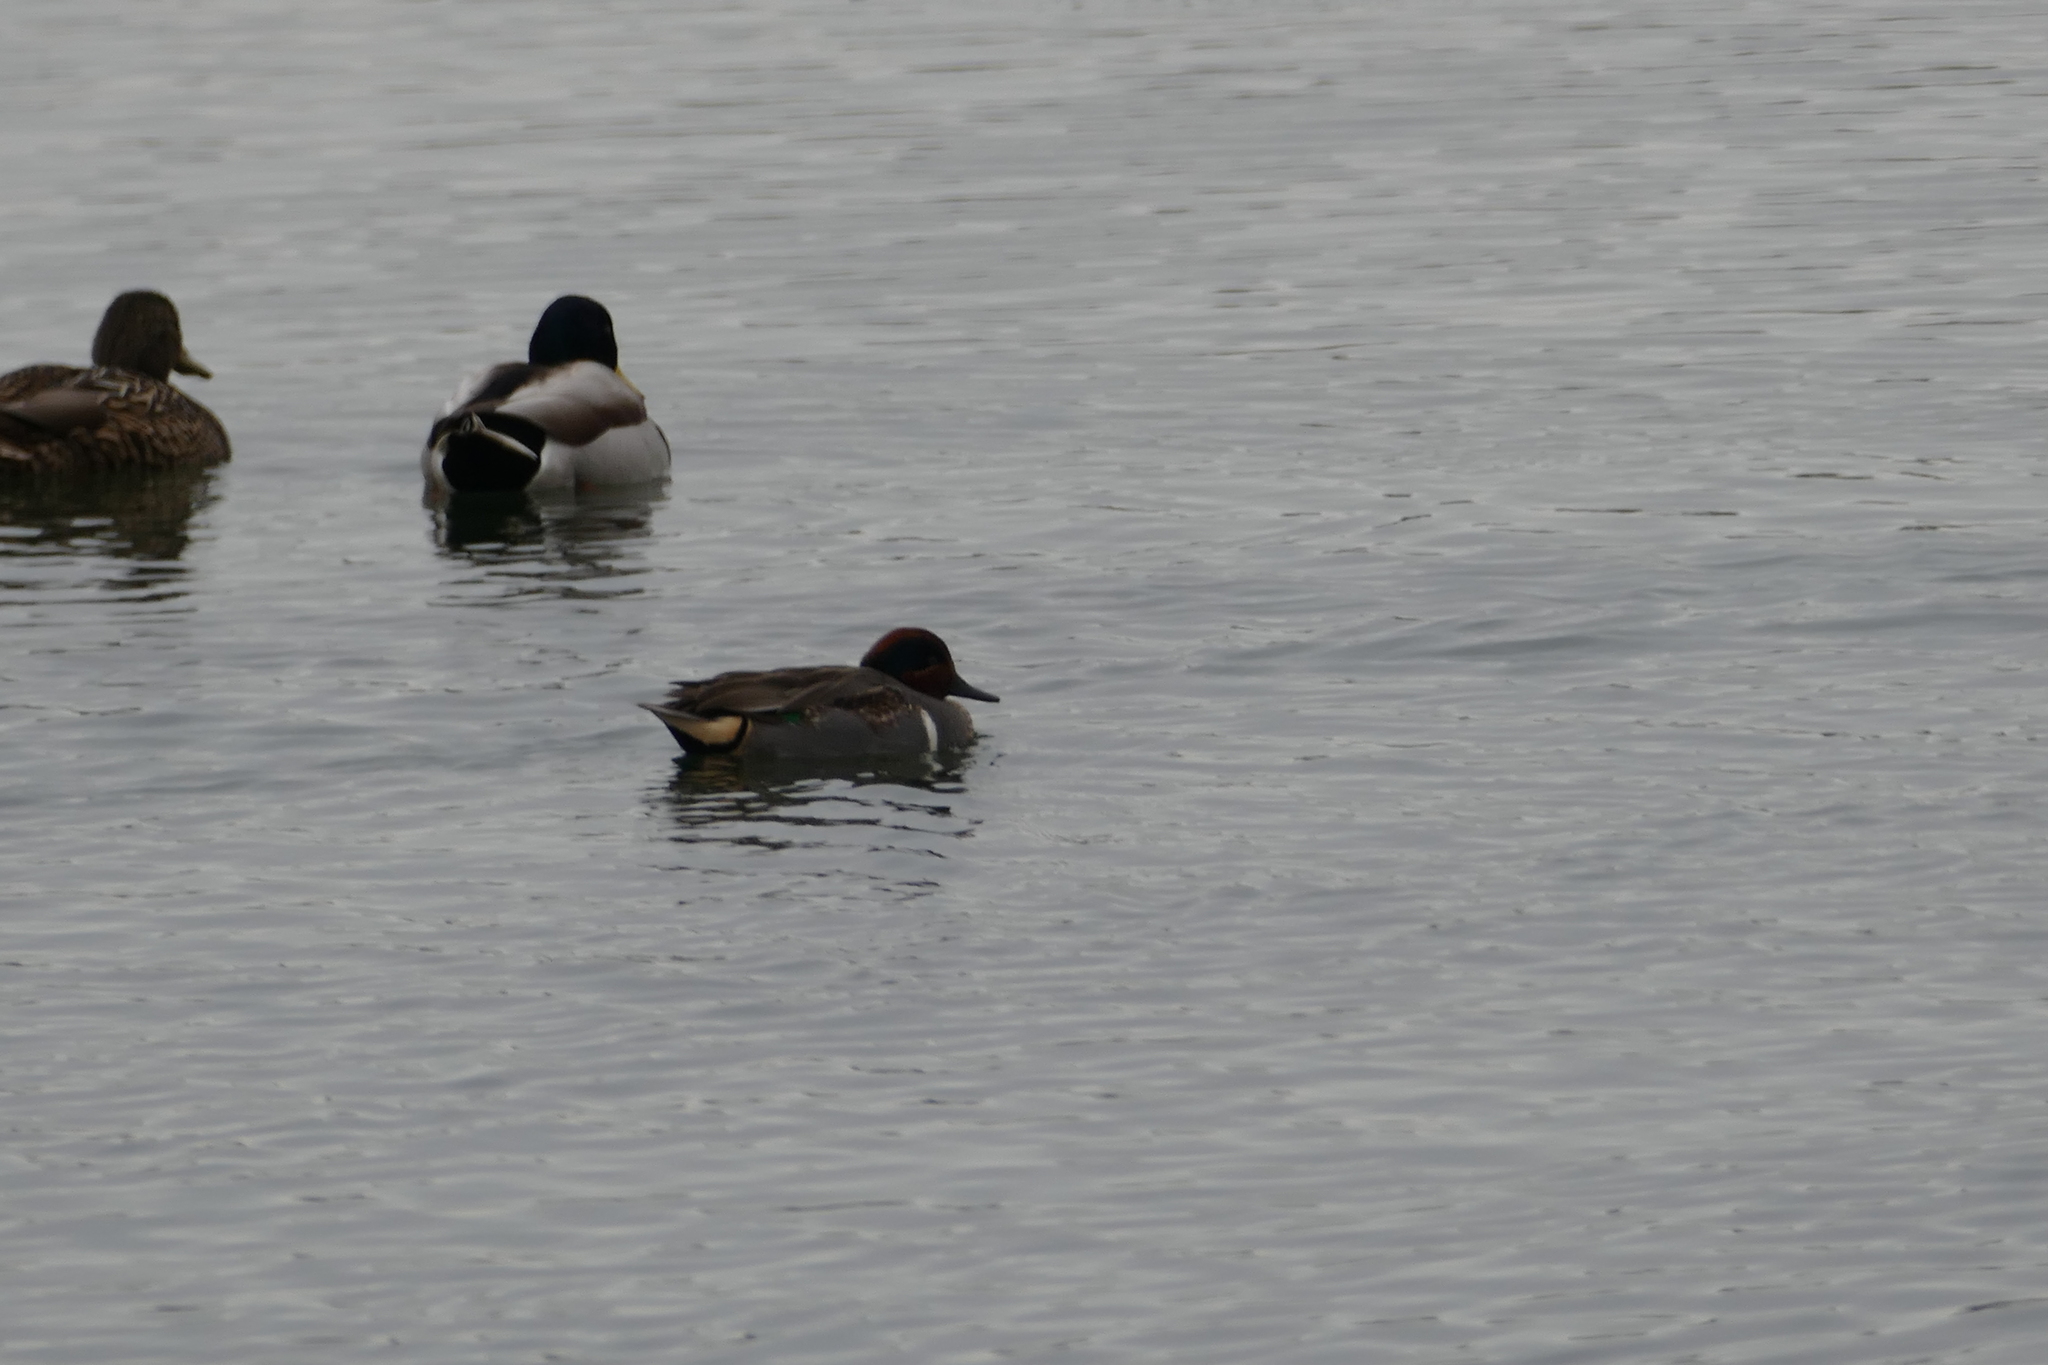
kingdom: Animalia
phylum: Chordata
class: Aves
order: Anseriformes
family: Anatidae
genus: Anas
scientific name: Anas crecca
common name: Eurasian teal
